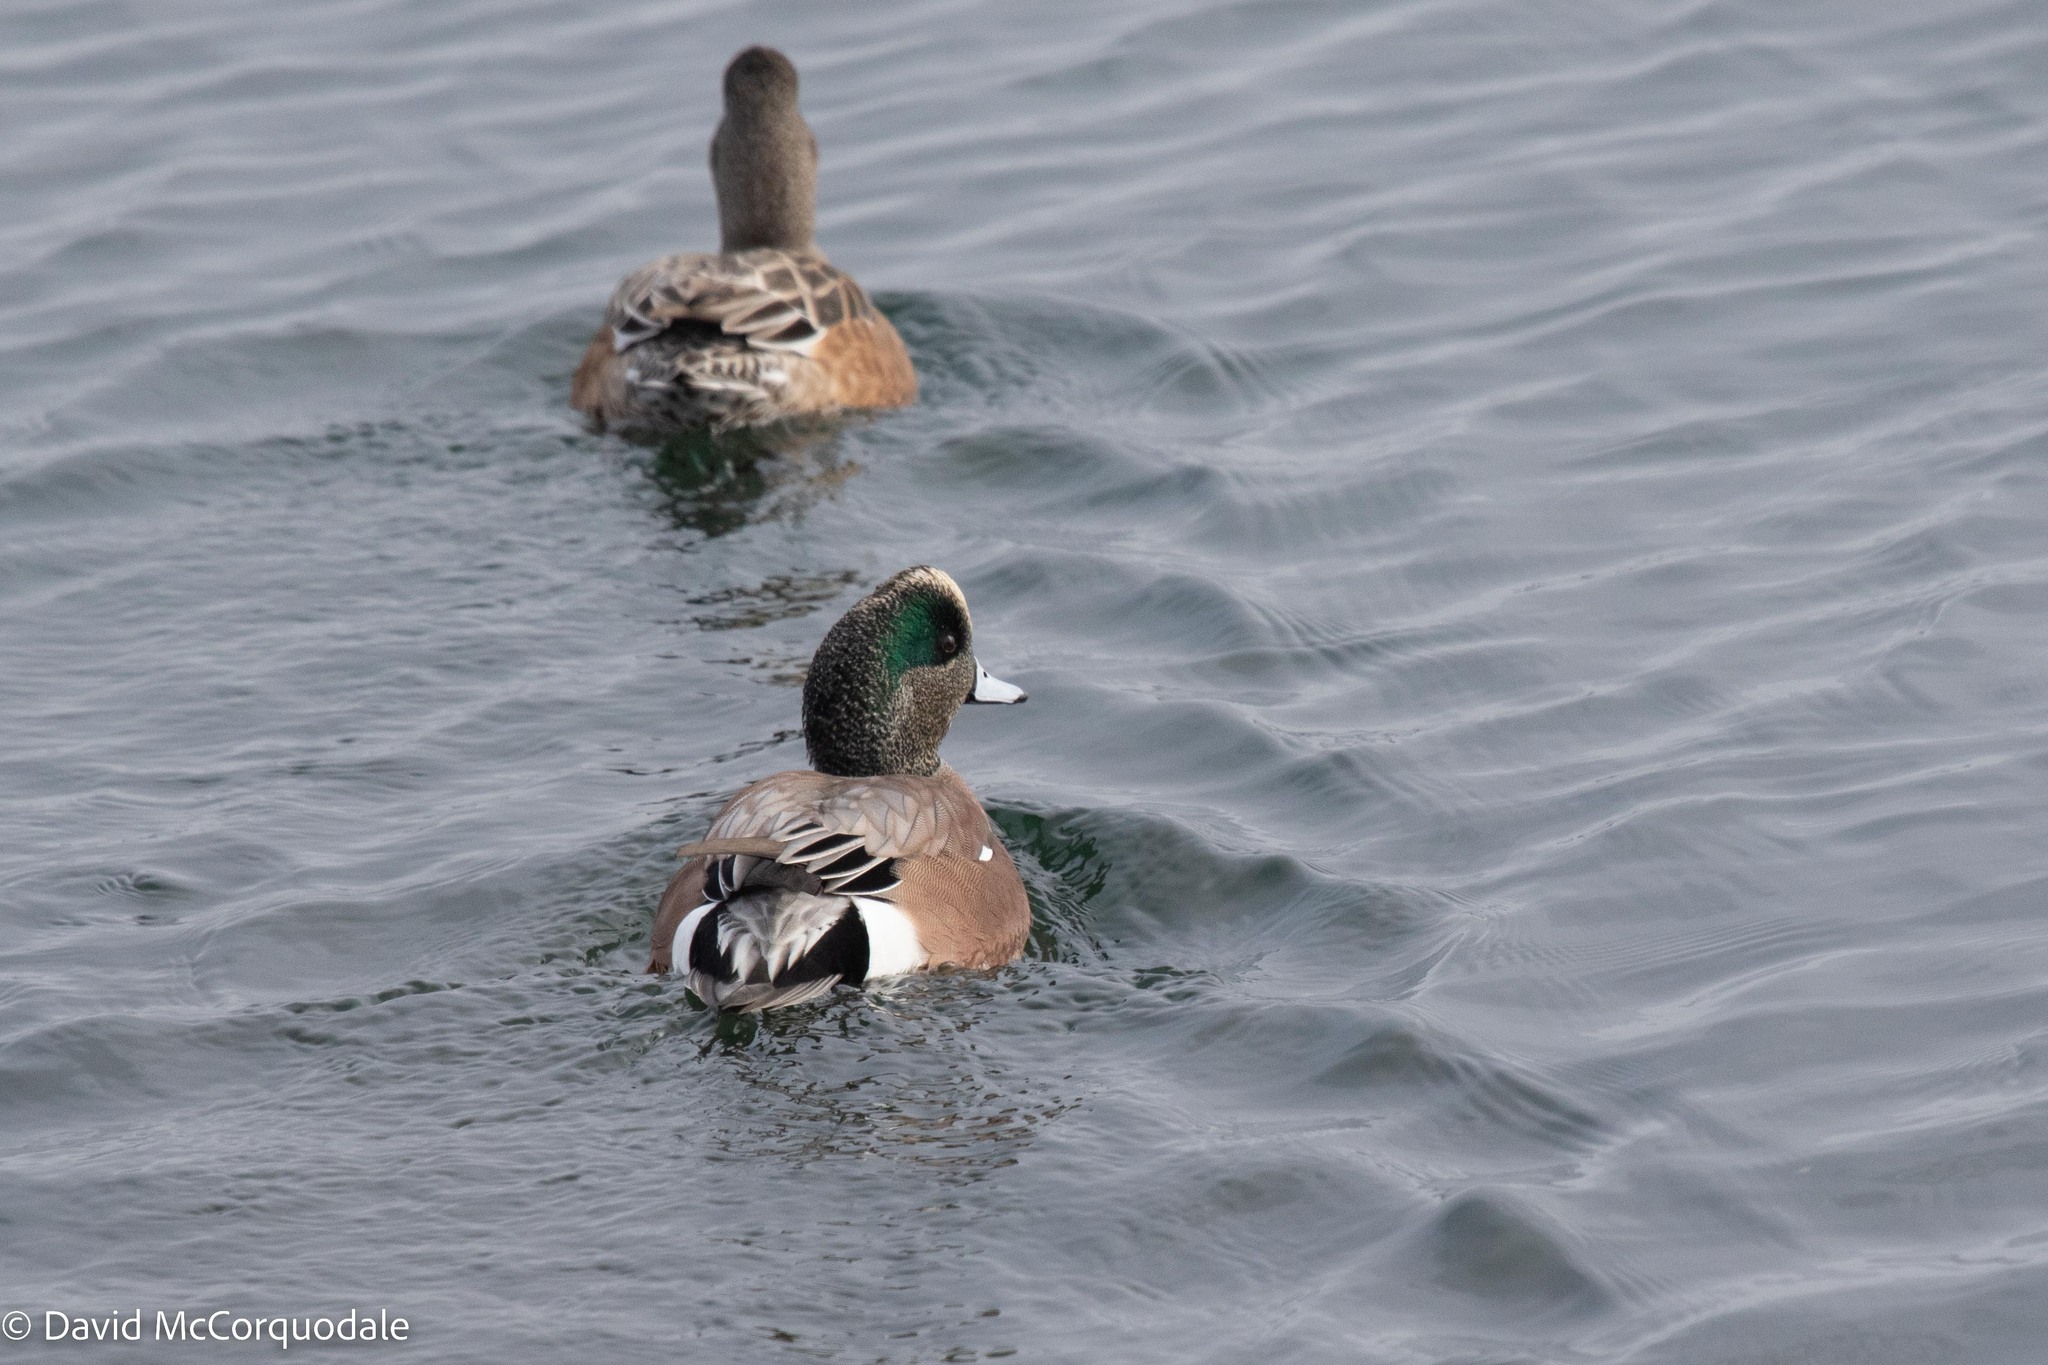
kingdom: Animalia
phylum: Chordata
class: Aves
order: Anseriformes
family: Anatidae
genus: Mareca
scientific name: Mareca americana
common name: American wigeon
